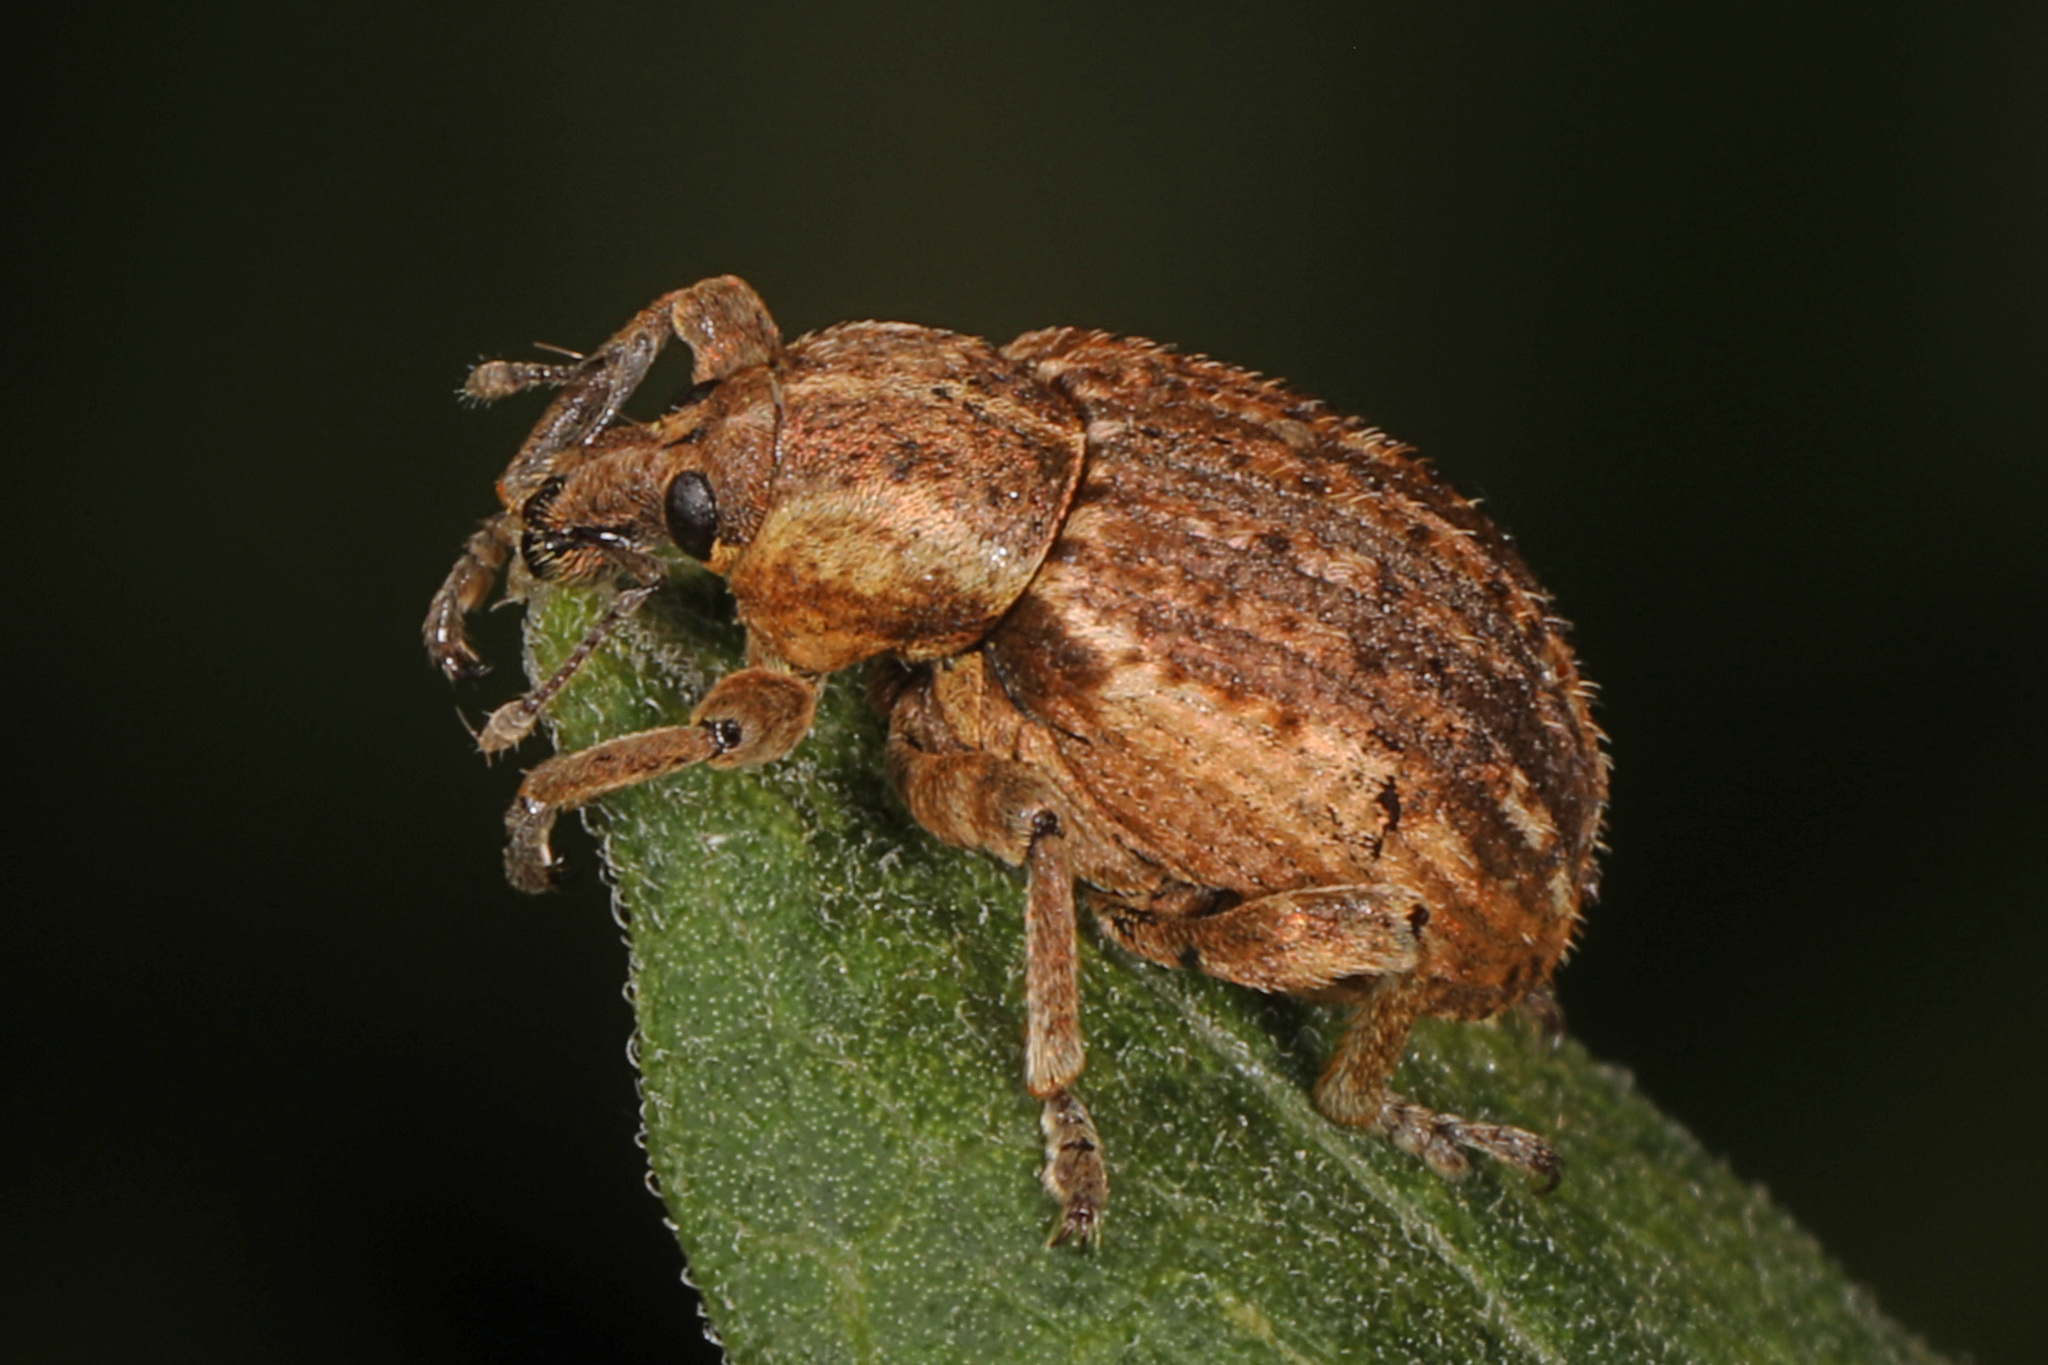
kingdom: Animalia
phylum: Arthropoda
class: Insecta
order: Coleoptera
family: Curculionidae
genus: Brachypera
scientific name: Brachypera zoilus
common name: Clover leaf weevil
